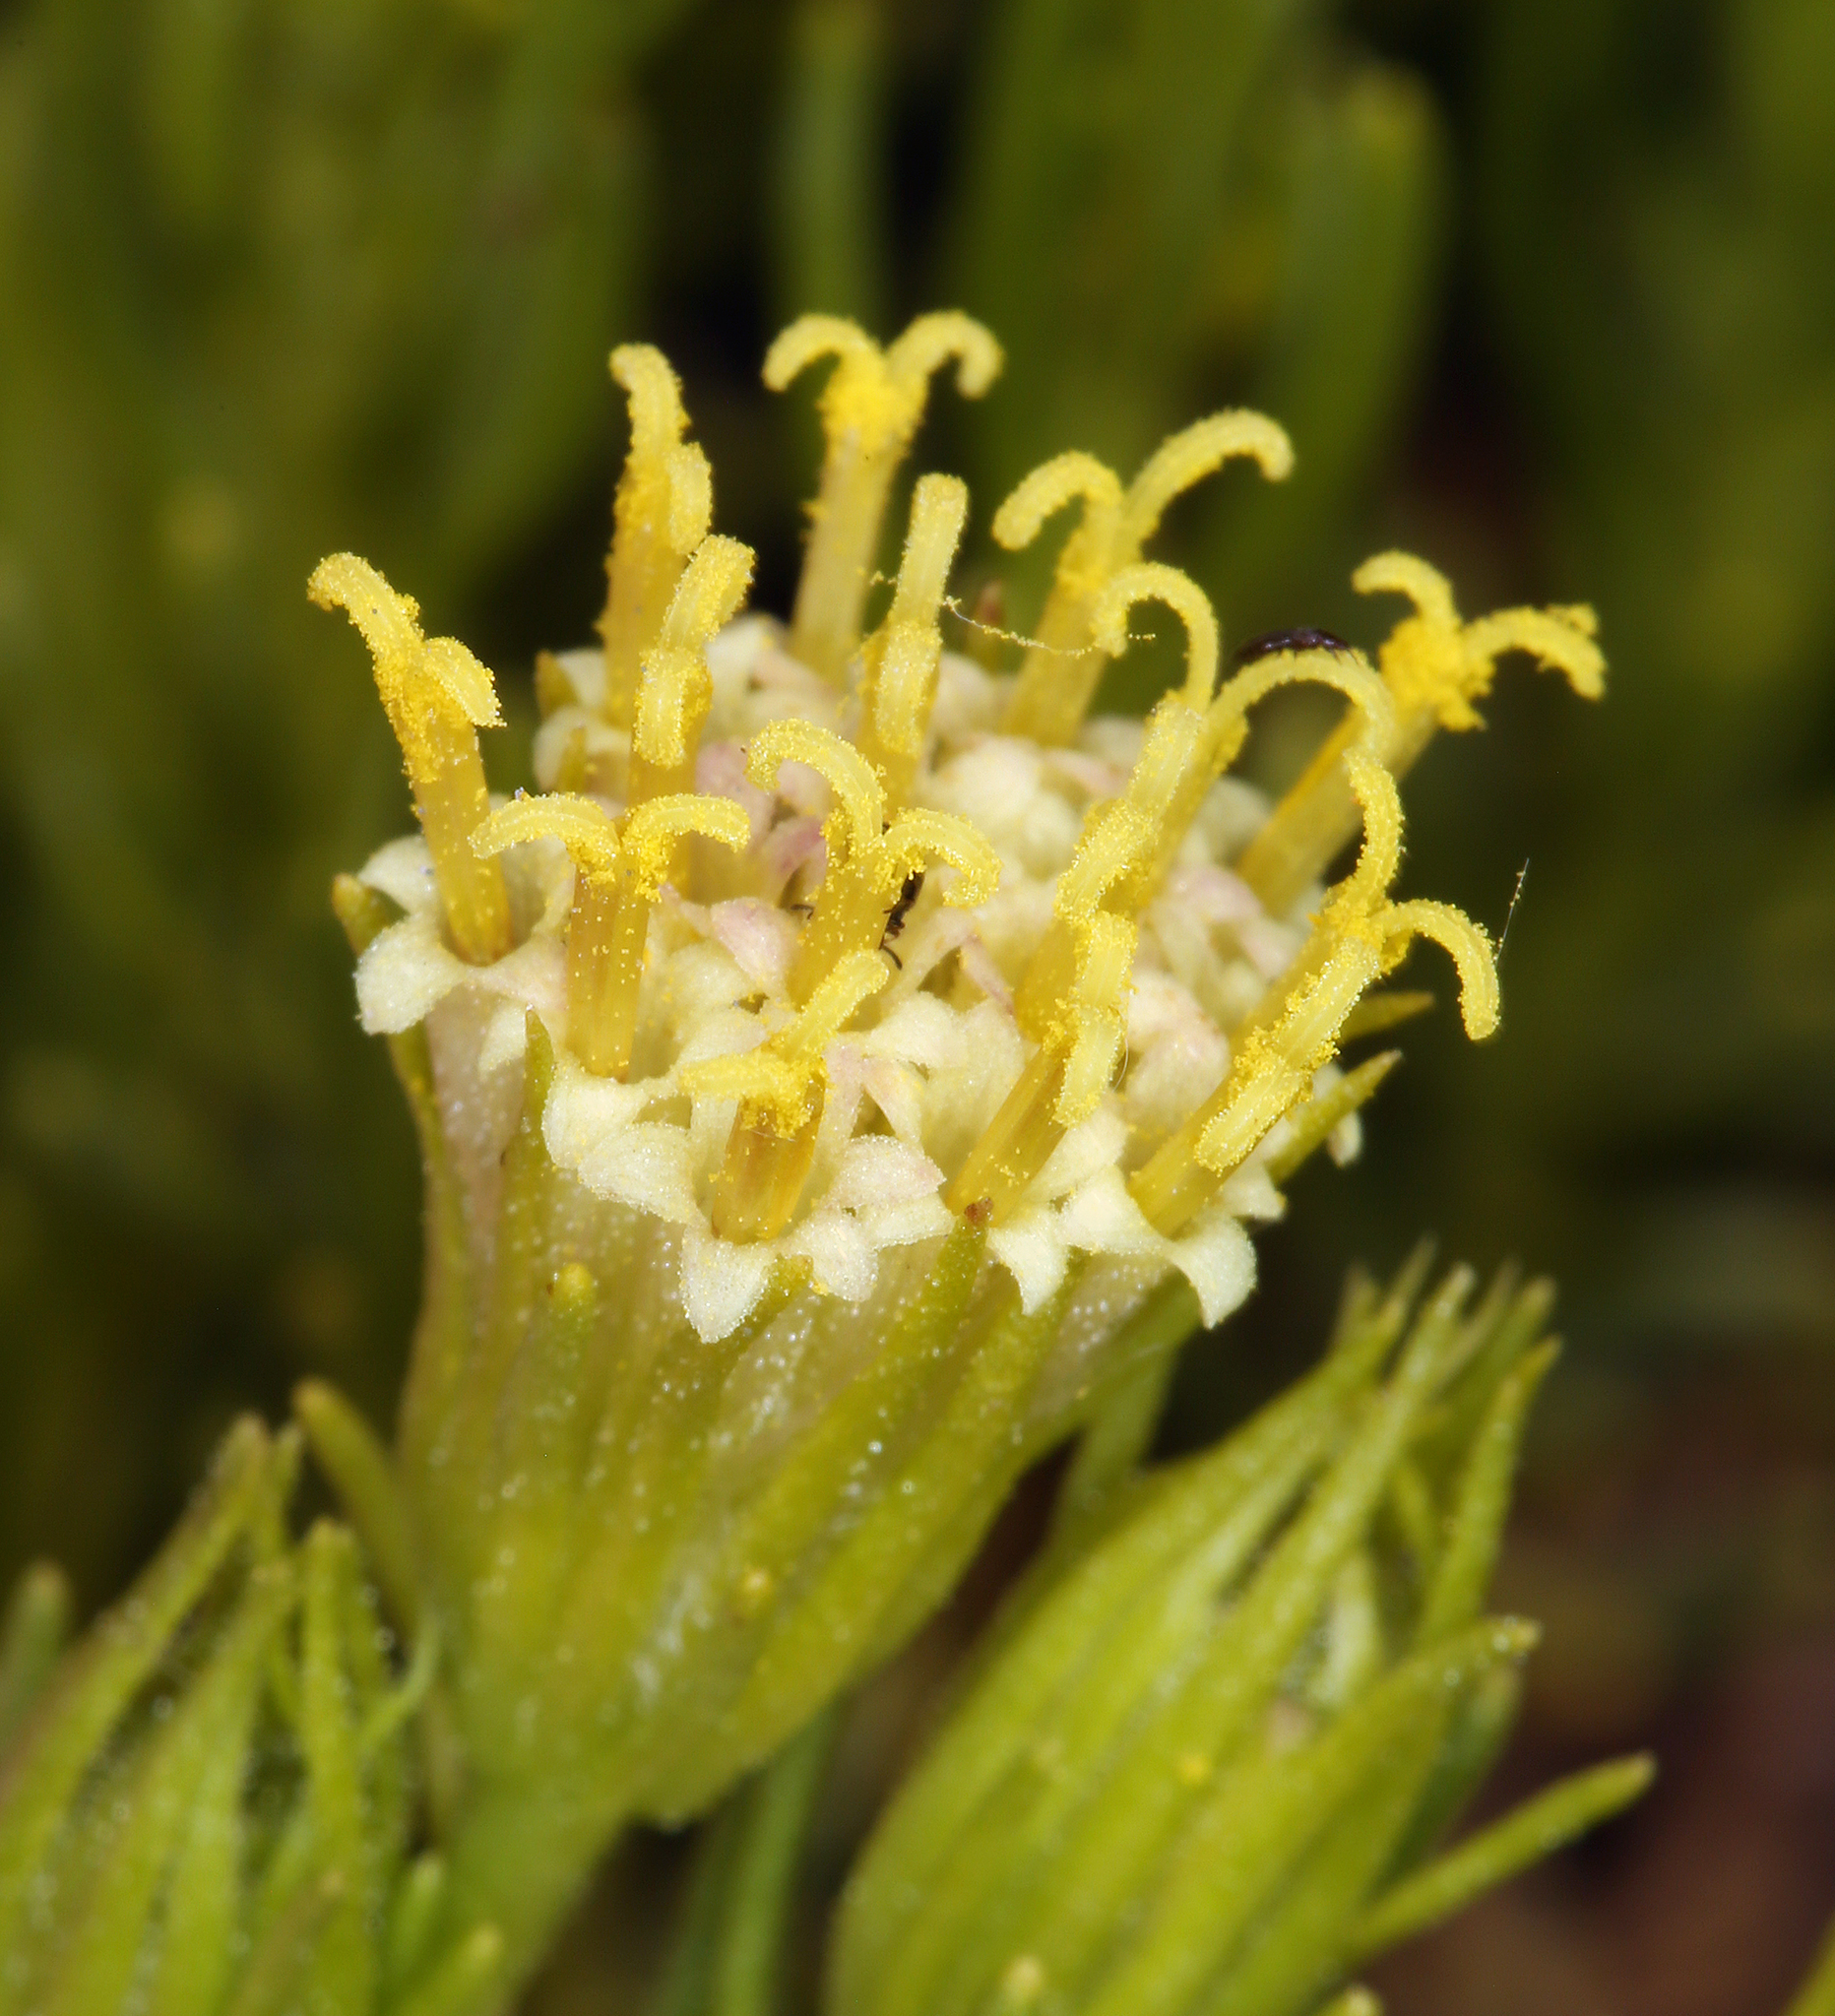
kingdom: Plantae
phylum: Tracheophyta
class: Magnoliopsida
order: Asterales
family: Asteraceae
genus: Peucephyllum
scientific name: Peucephyllum schottii
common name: Pygmy-cedar
